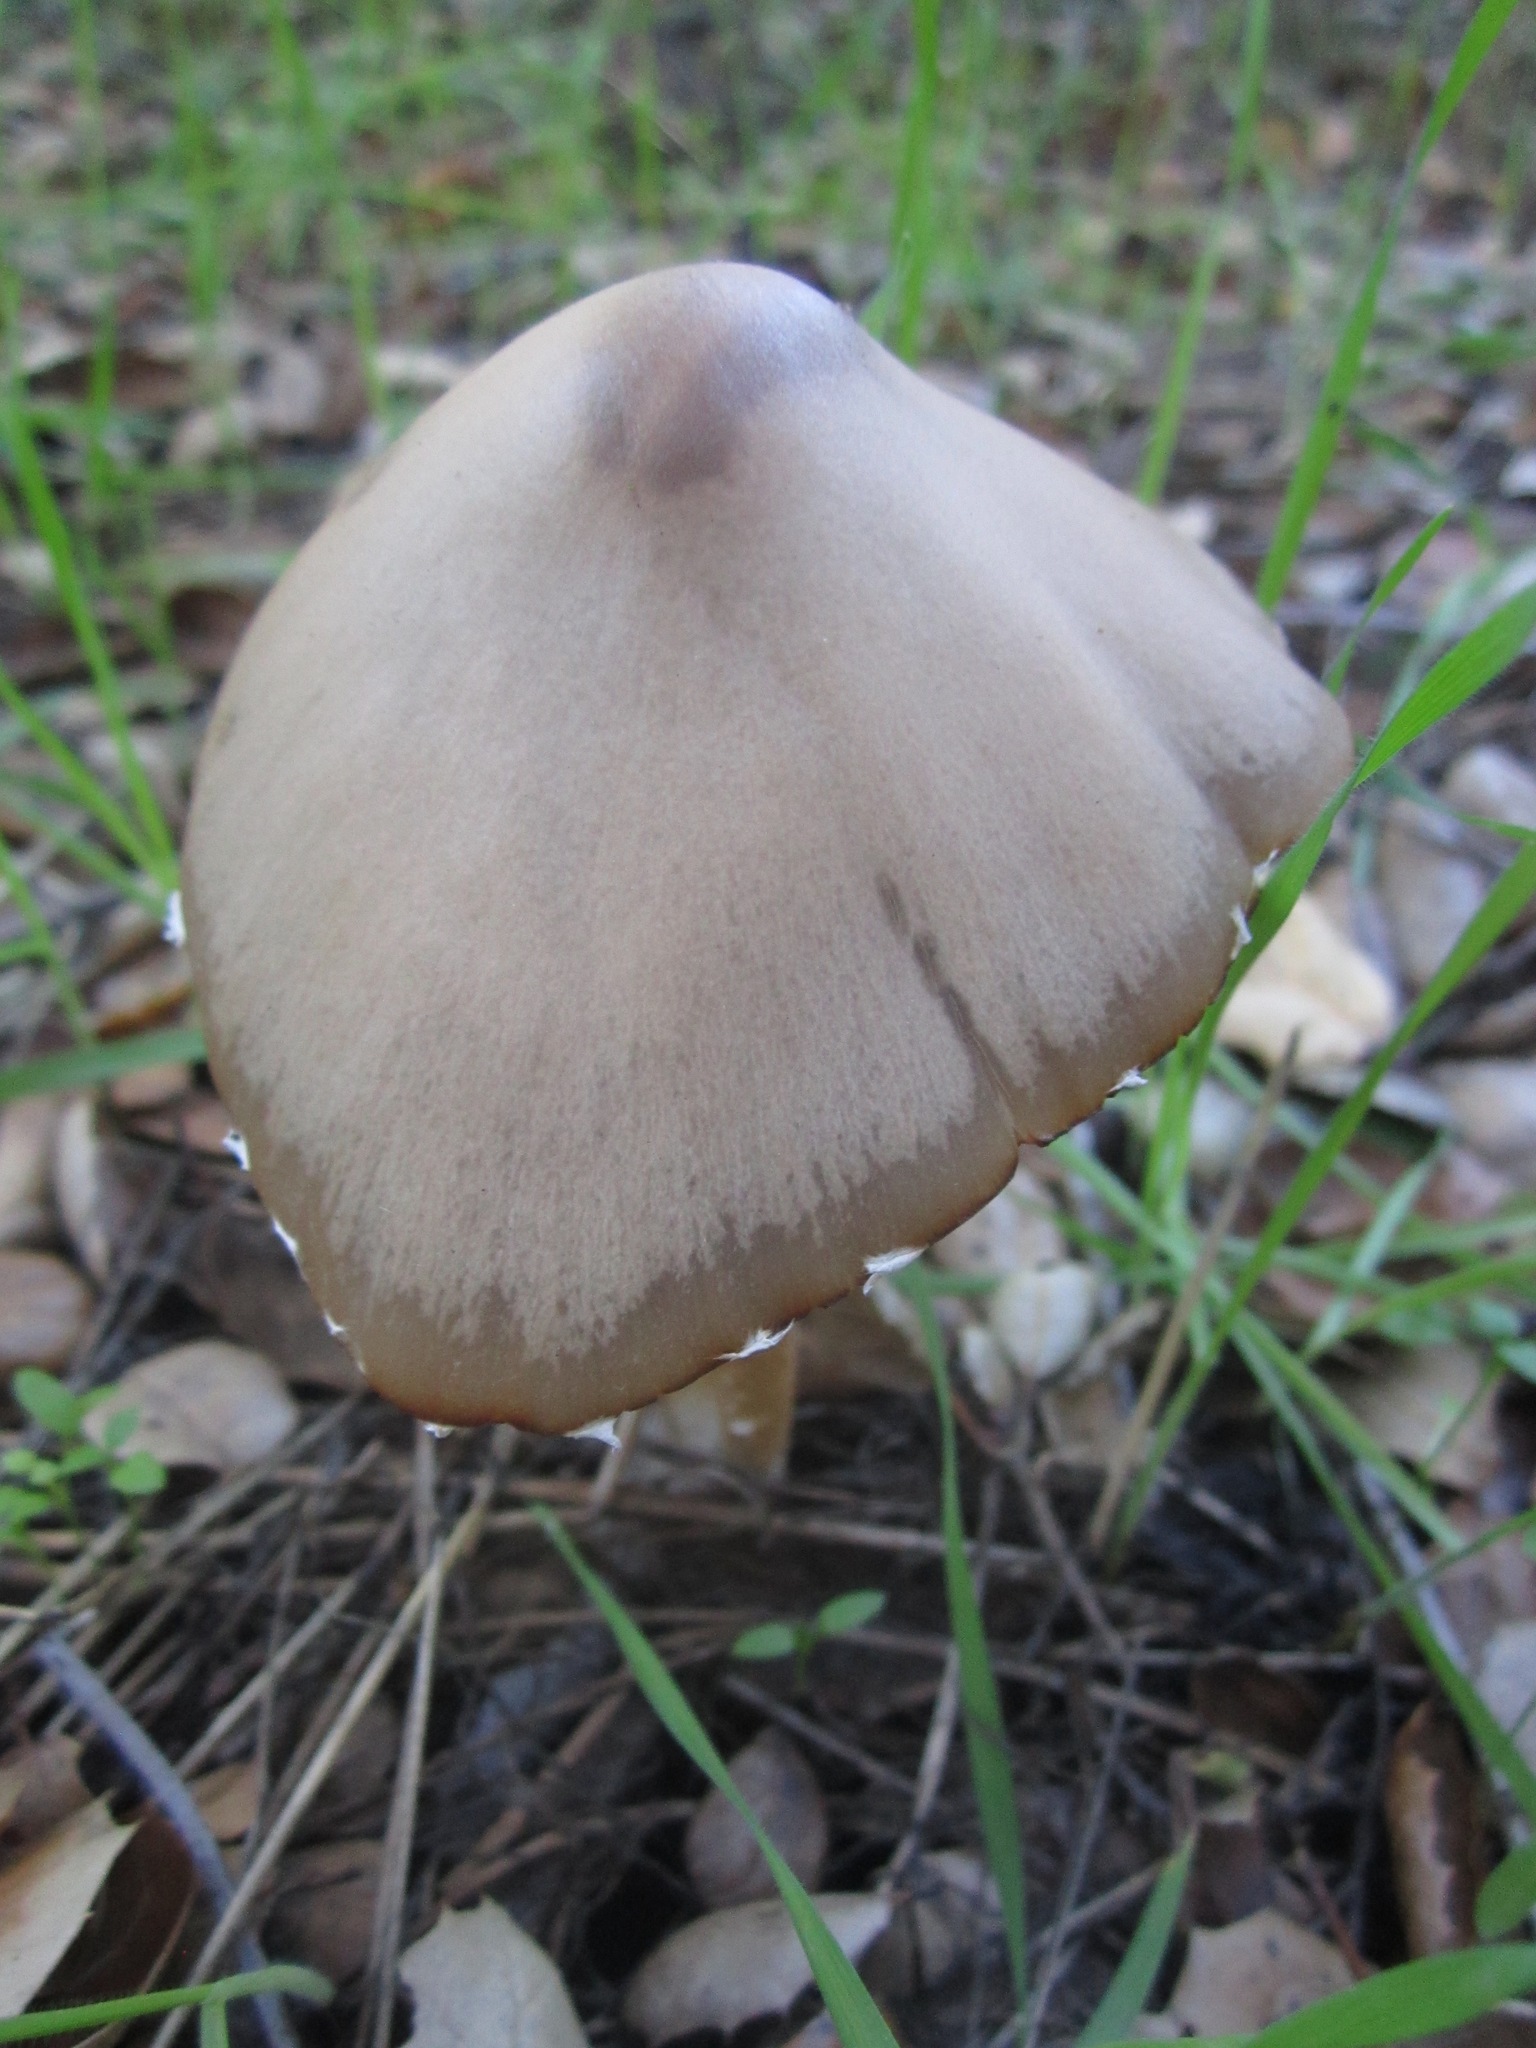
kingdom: Fungi
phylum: Basidiomycota
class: Agaricomycetes
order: Agaricales
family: Psathyrellaceae
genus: Psathyrella
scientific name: Psathyrella longipes
